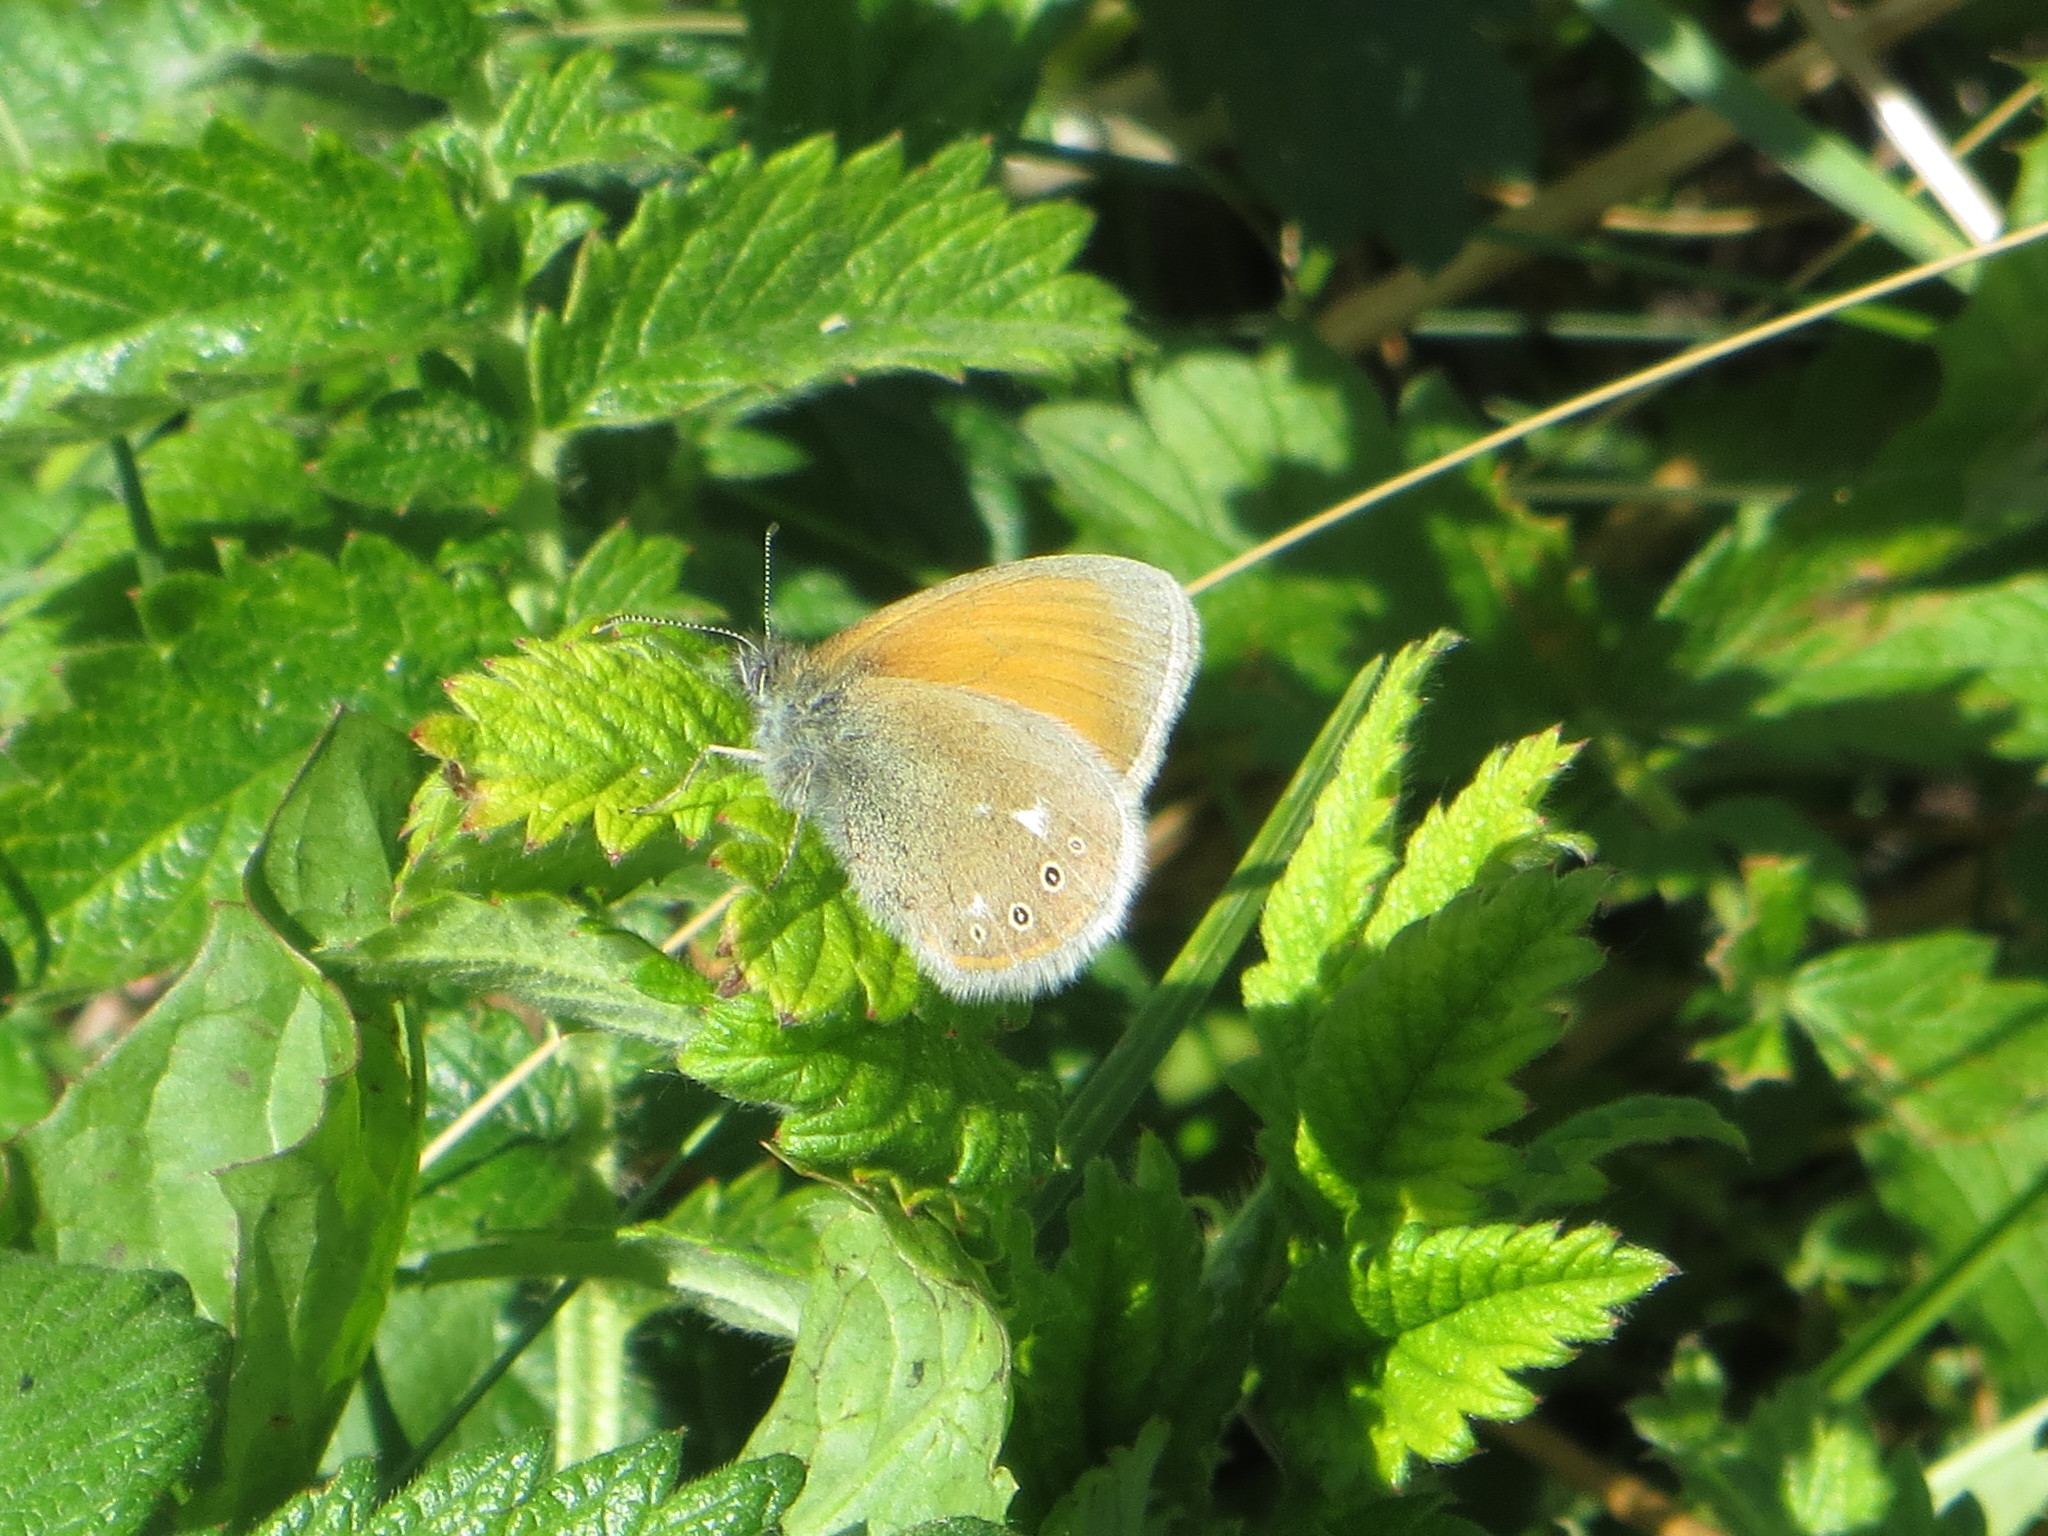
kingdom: Animalia
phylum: Arthropoda
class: Insecta
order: Lepidoptera
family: Nymphalidae
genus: Coenonympha
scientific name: Coenonympha iphis
